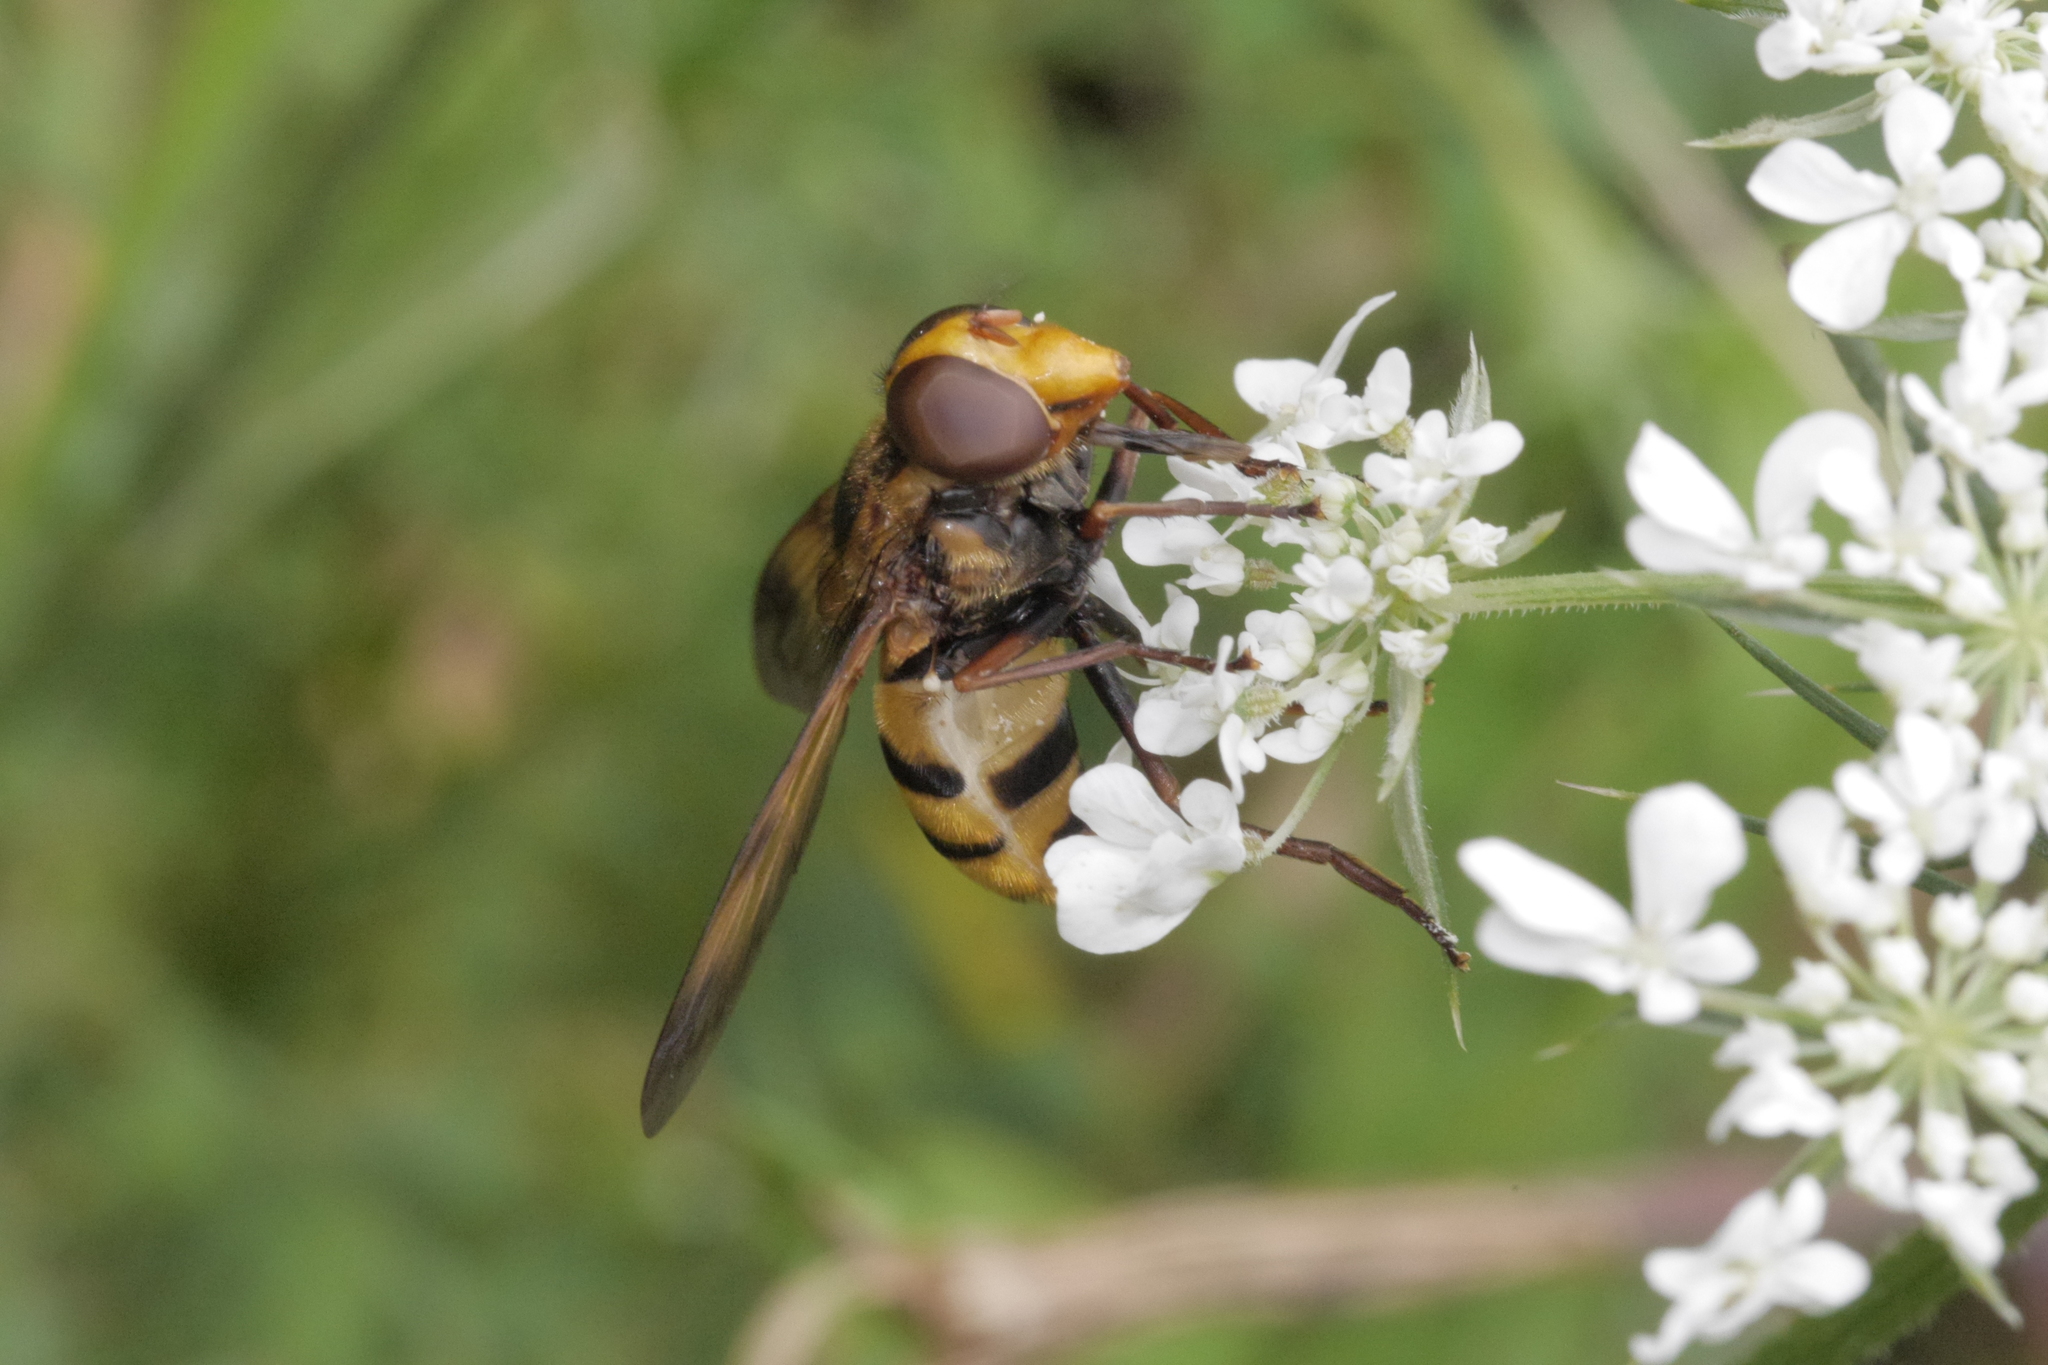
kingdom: Animalia
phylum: Arthropoda
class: Insecta
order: Diptera
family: Syrphidae
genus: Volucella
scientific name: Volucella inanis
